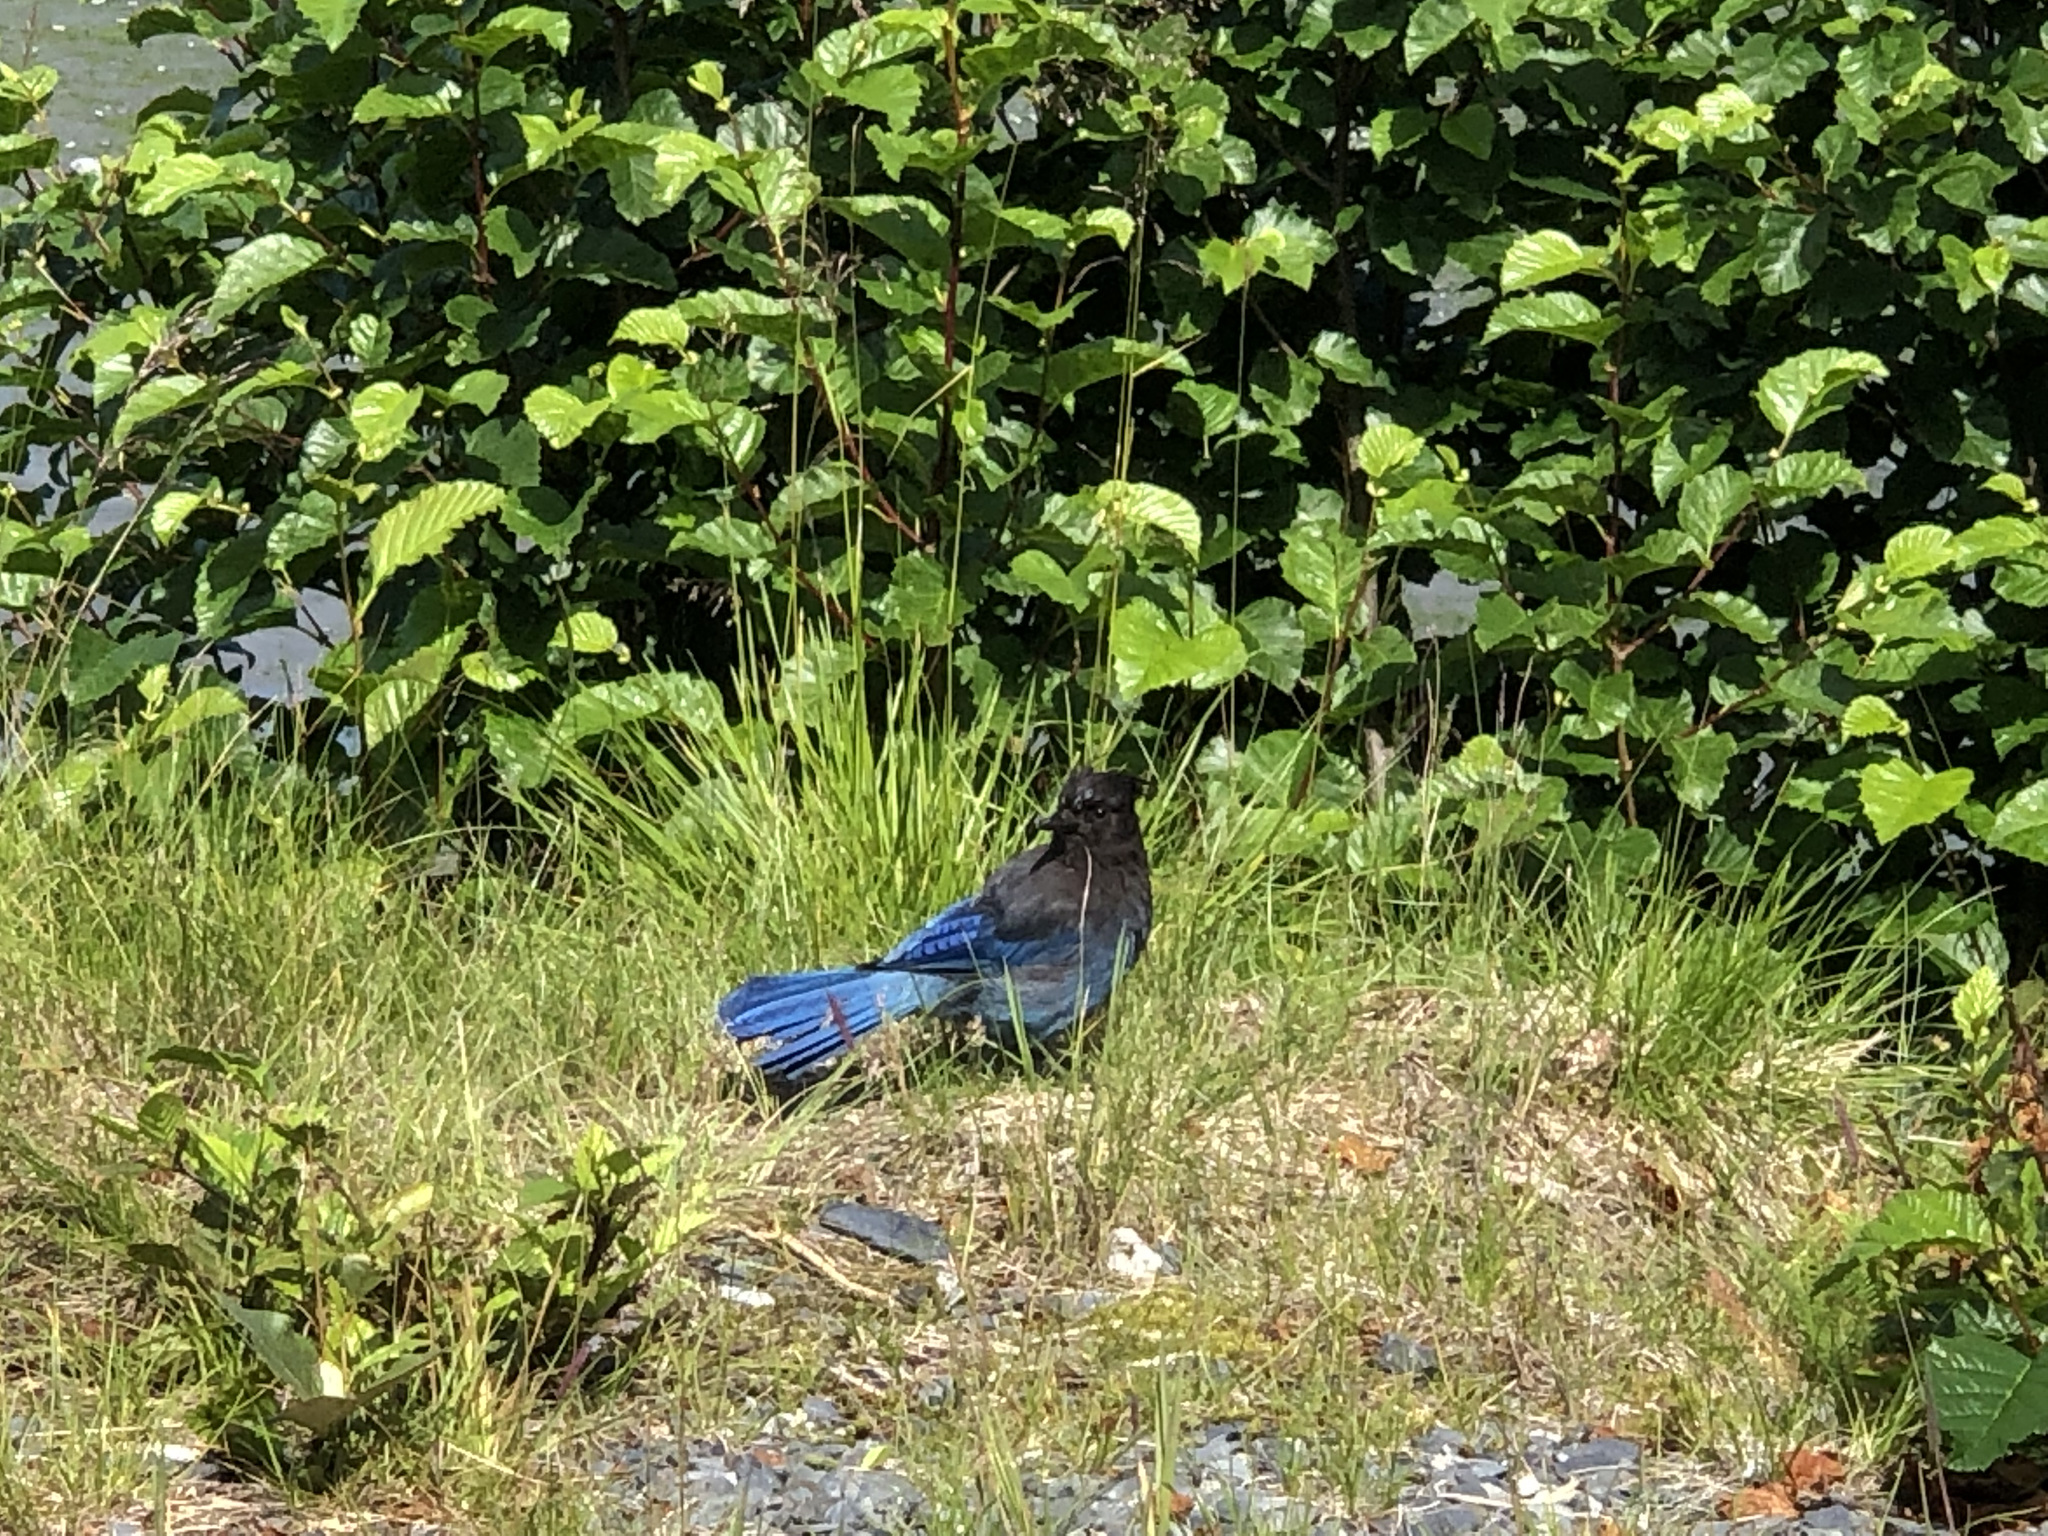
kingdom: Animalia
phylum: Chordata
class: Aves
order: Passeriformes
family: Corvidae
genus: Cyanocitta
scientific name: Cyanocitta stelleri
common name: Steller's jay
